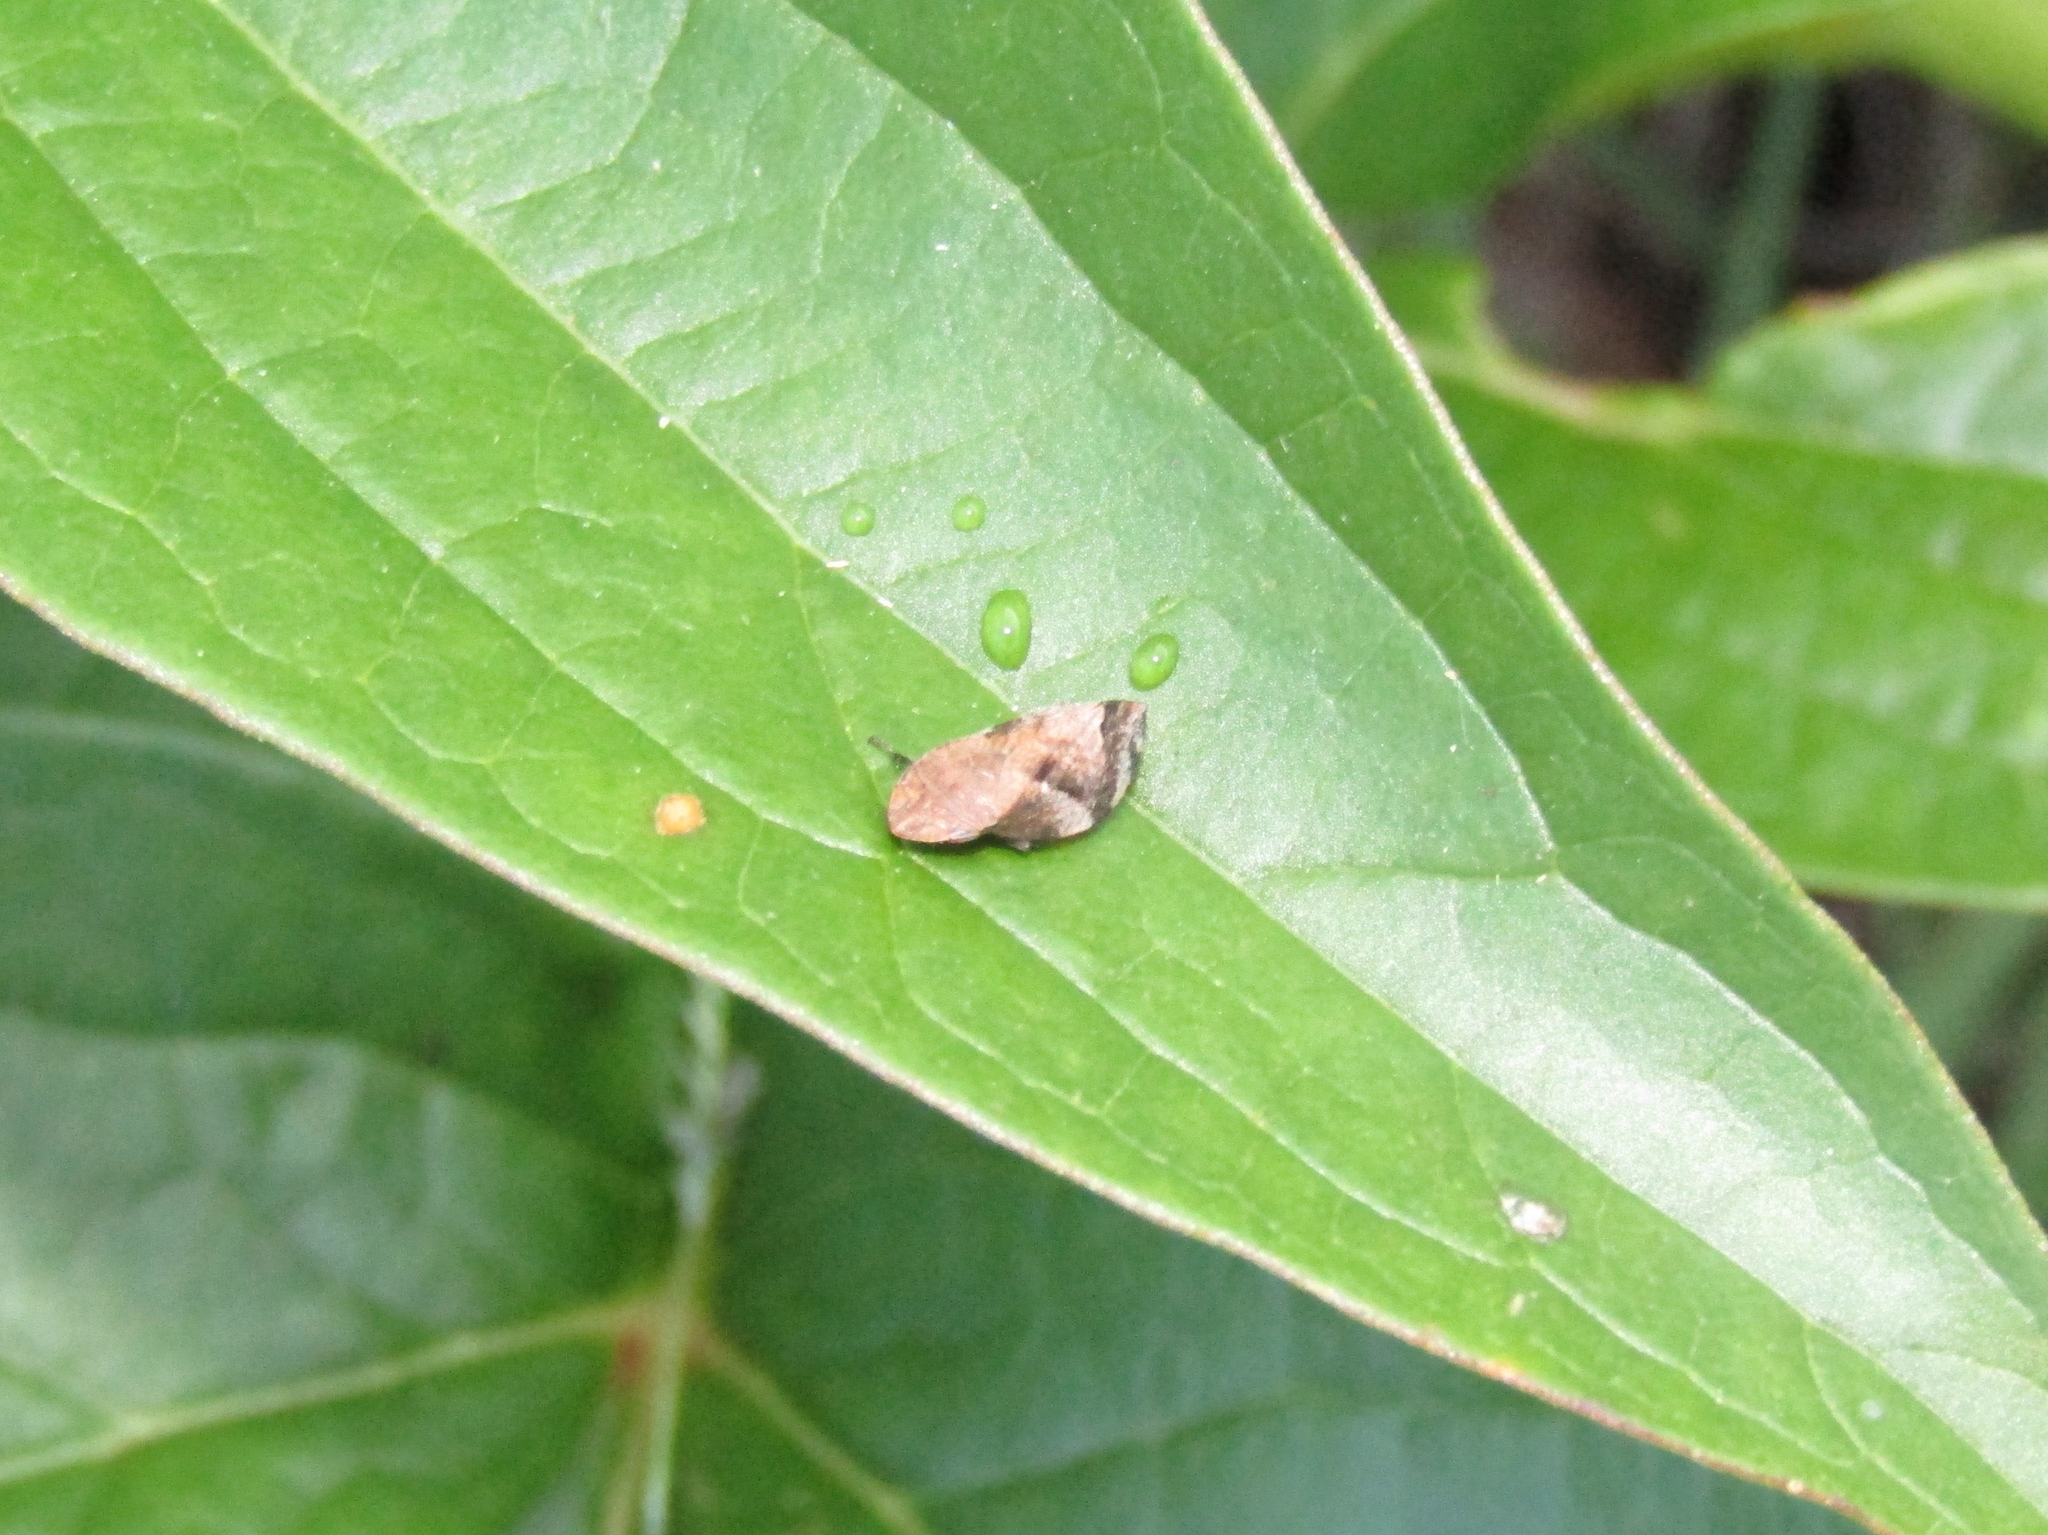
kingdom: Animalia
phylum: Arthropoda
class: Insecta
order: Hemiptera
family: Aphrophoridae
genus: Lepyronia
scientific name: Lepyronia quadrangularis
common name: Diamond-backed spittlebug
